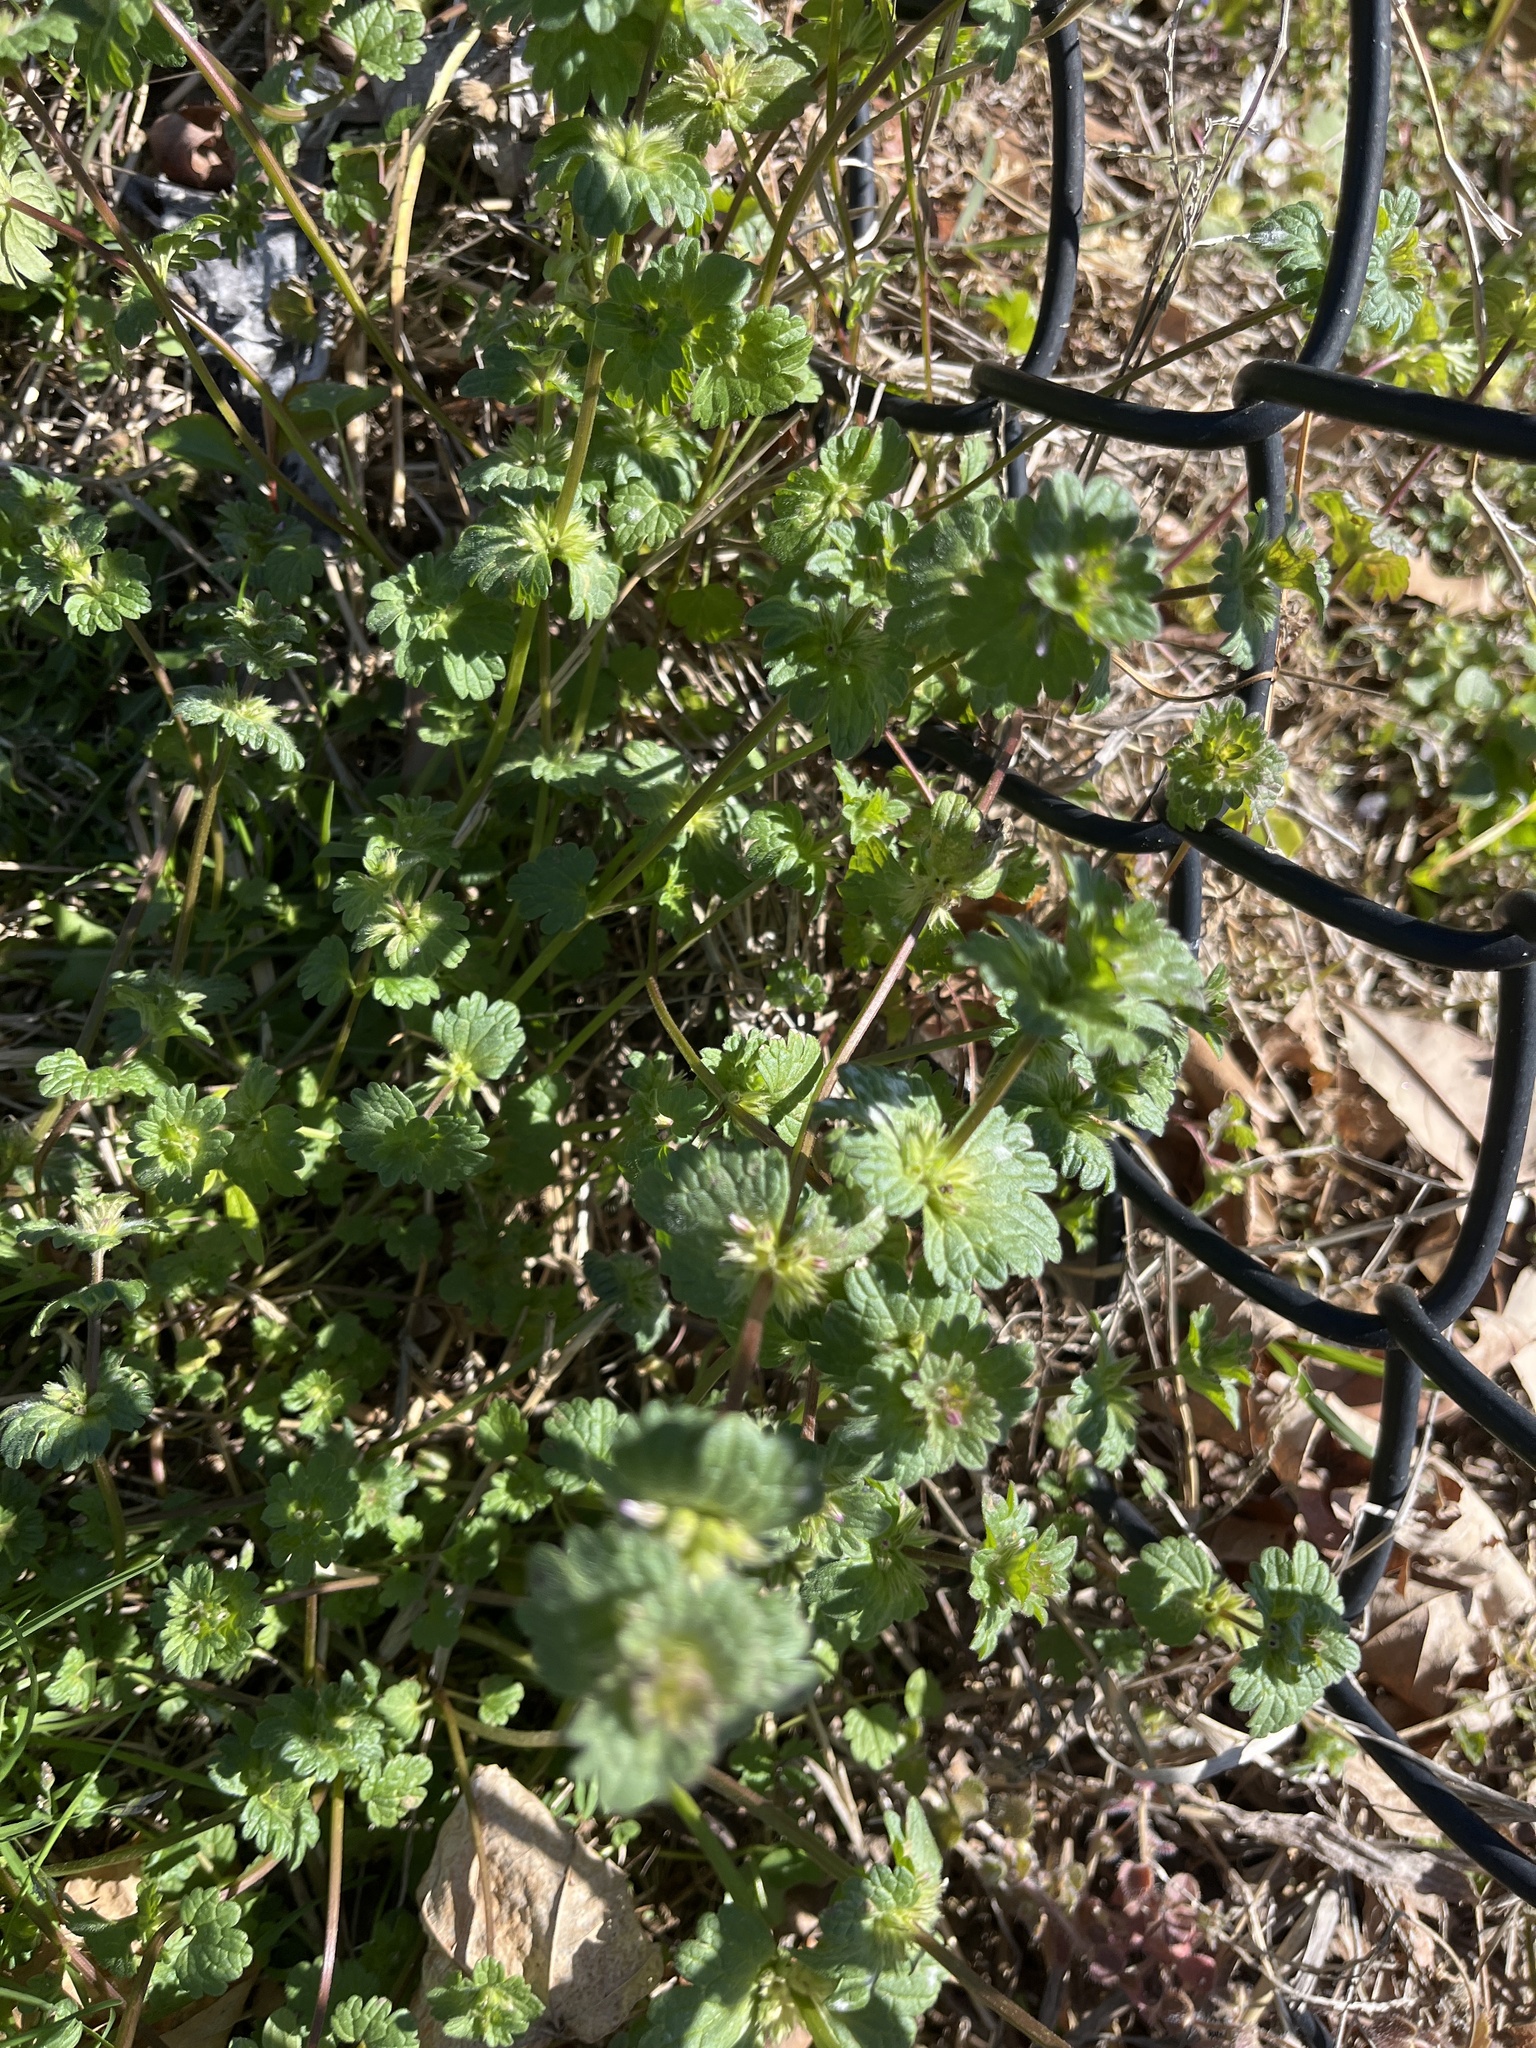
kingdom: Plantae
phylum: Tracheophyta
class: Magnoliopsida
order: Lamiales
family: Lamiaceae
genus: Lamium
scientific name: Lamium amplexicaule
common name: Henbit dead-nettle
